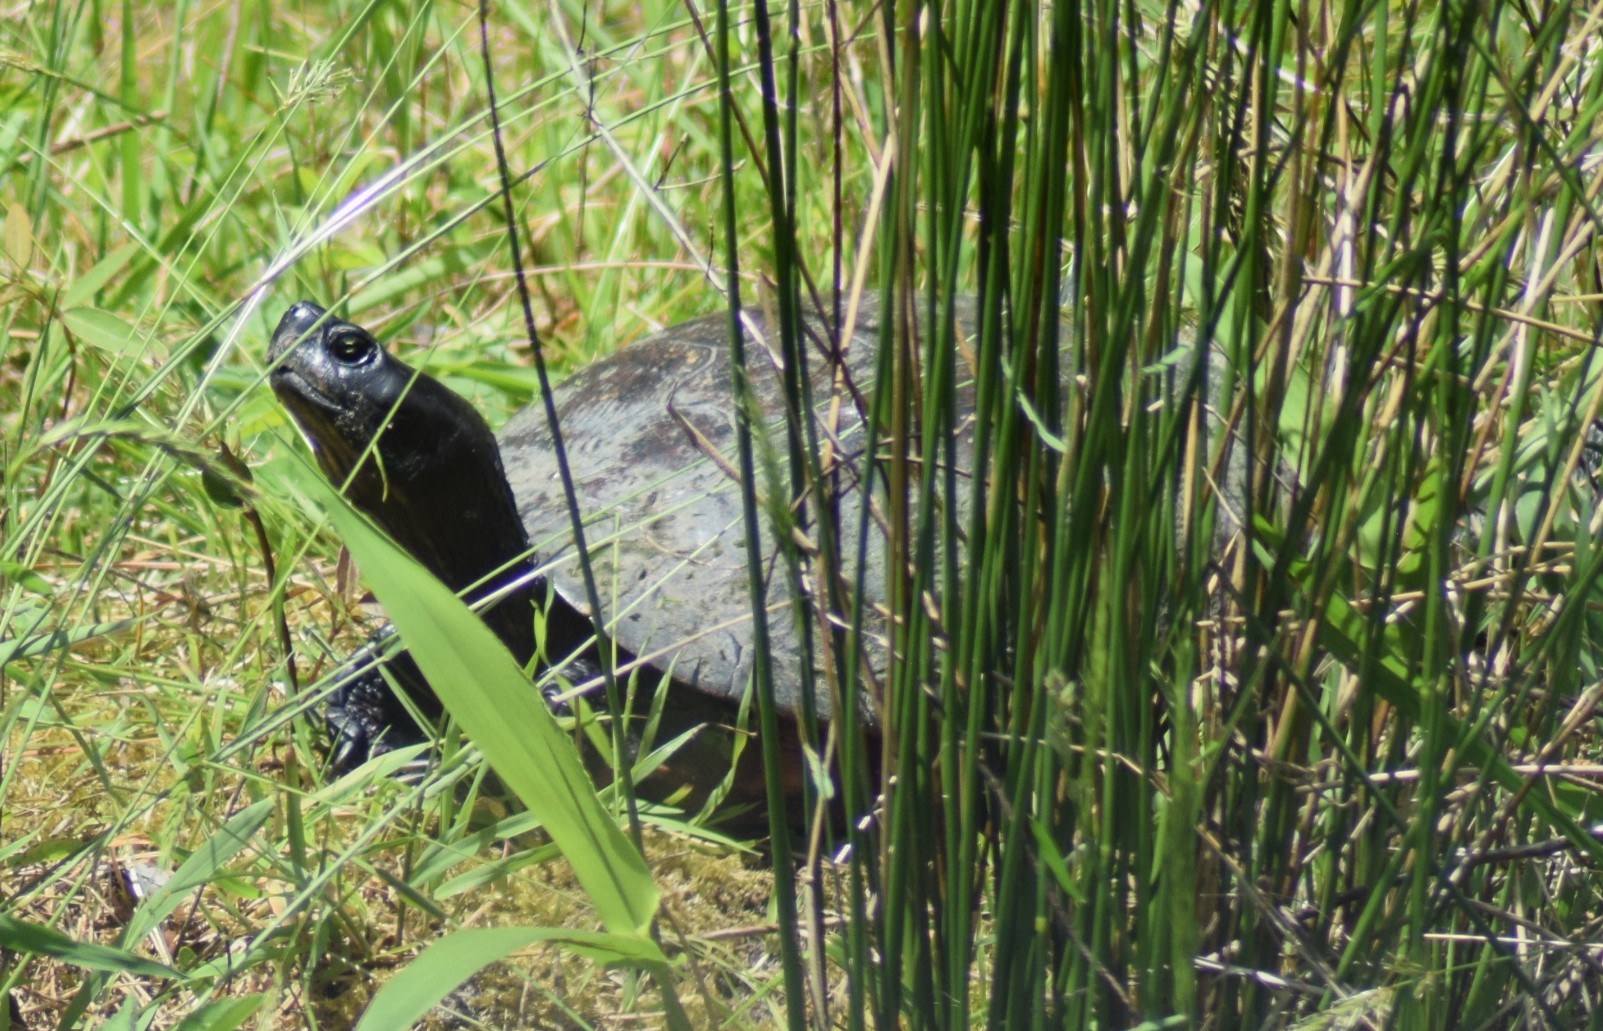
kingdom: Animalia
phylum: Chordata
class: Testudines
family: Emydidae
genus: Pseudemys
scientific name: Pseudemys rubriventris
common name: American red-bellied turtle
